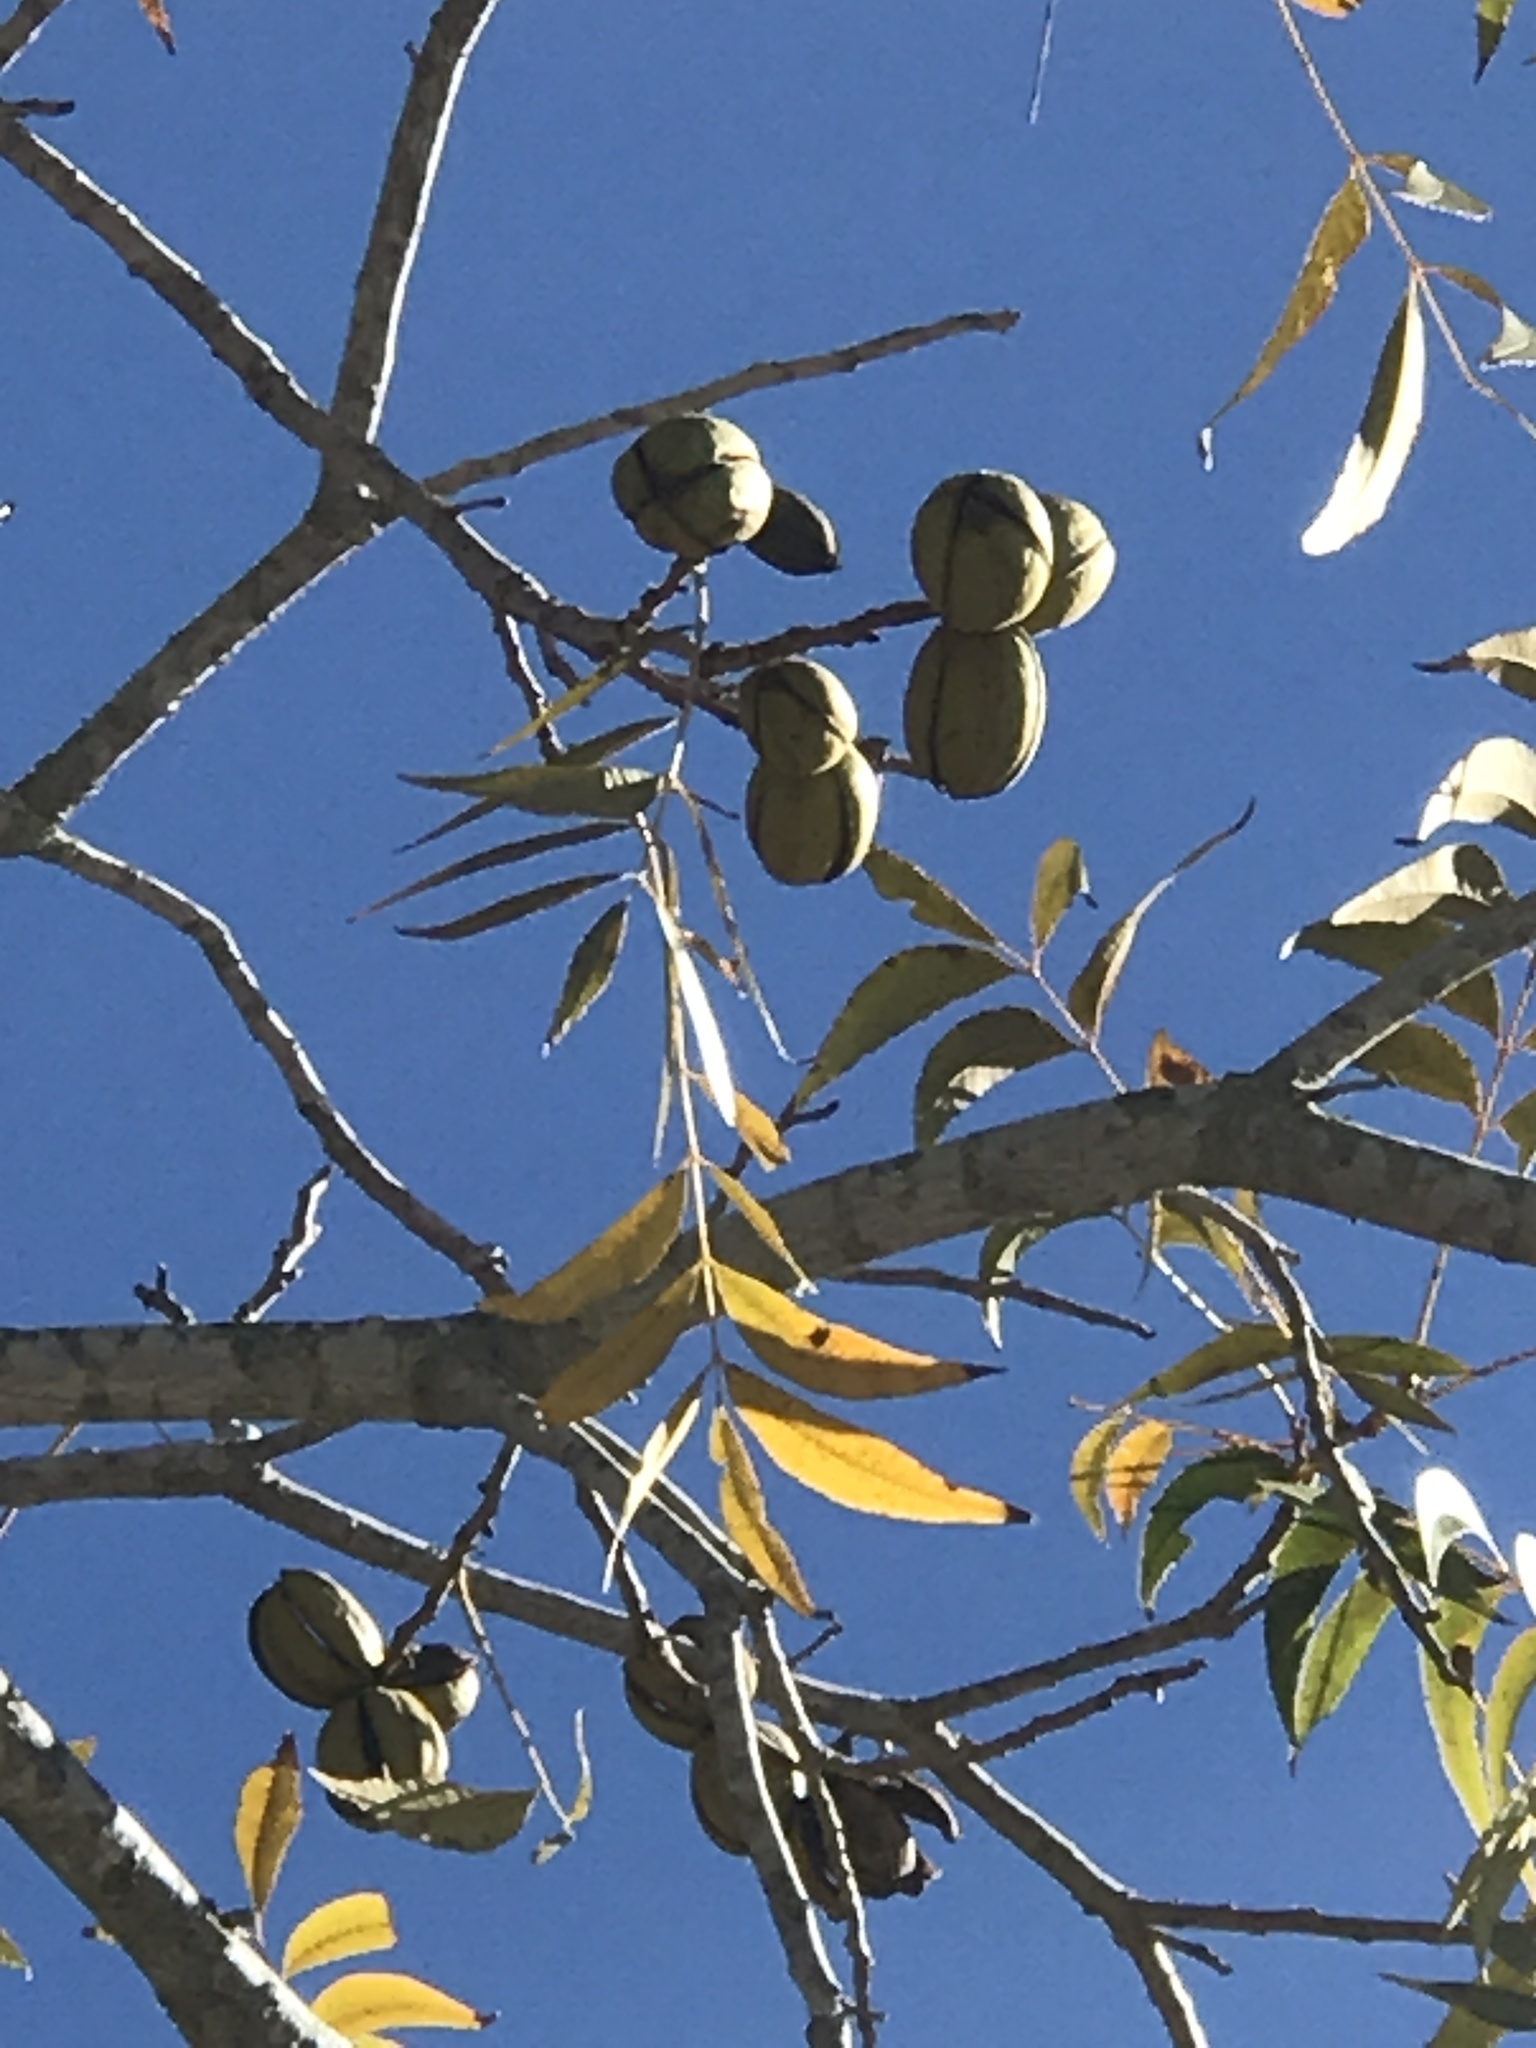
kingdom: Plantae
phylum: Tracheophyta
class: Magnoliopsida
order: Fagales
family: Juglandaceae
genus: Carya
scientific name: Carya illinoinensis
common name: Pecan
